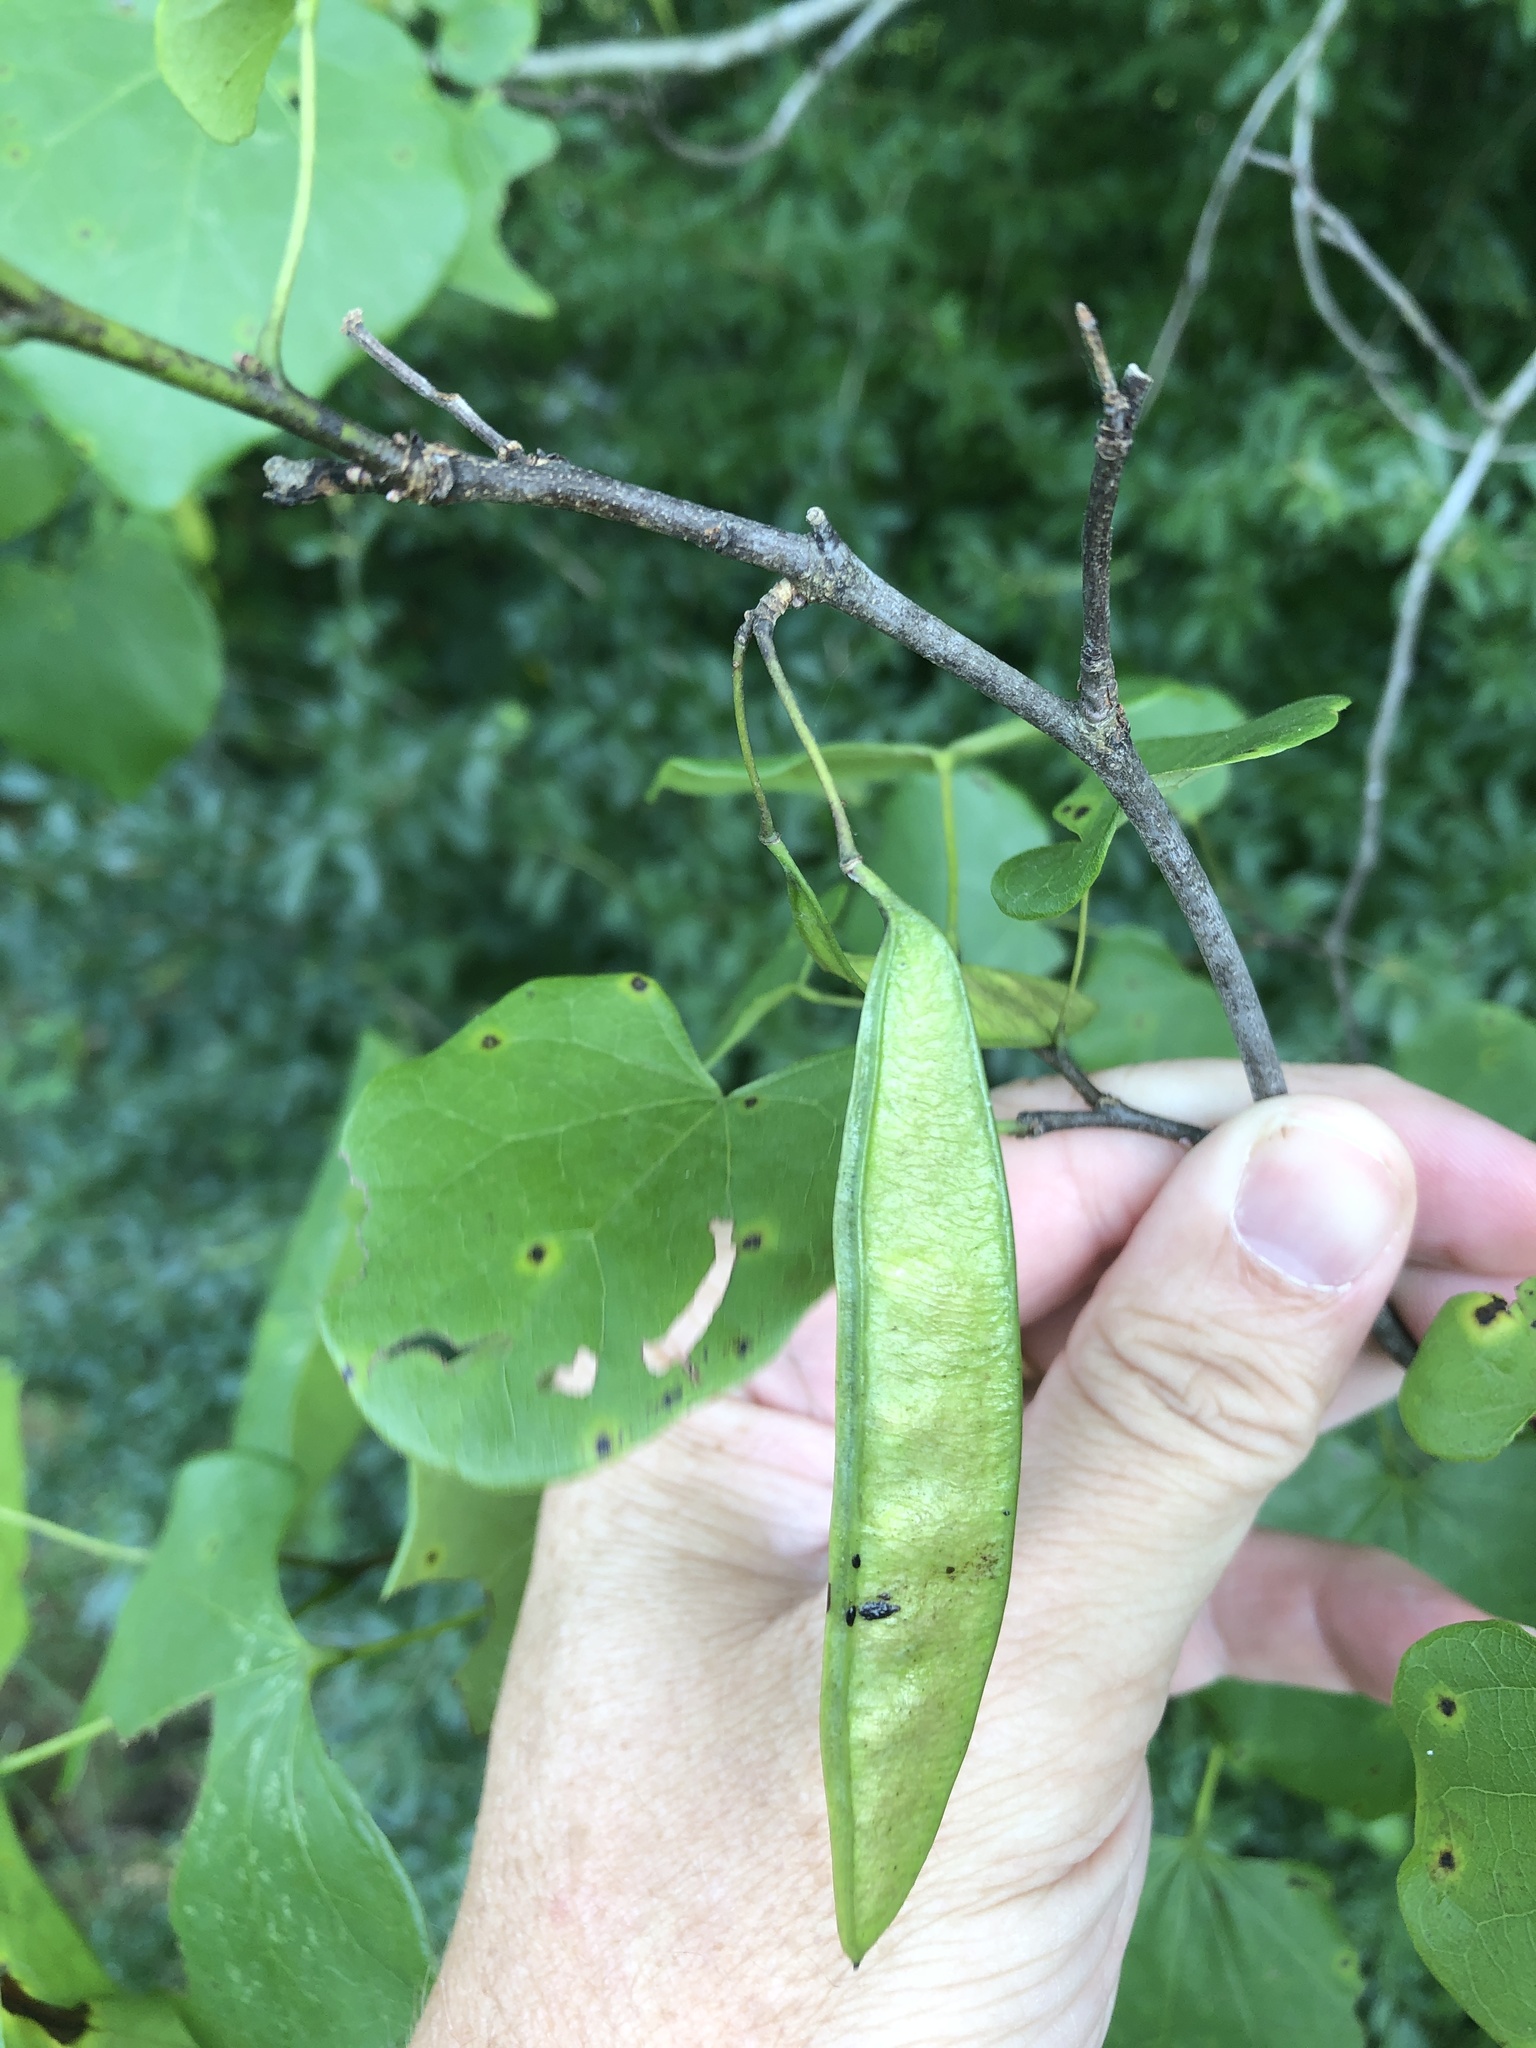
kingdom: Plantae
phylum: Tracheophyta
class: Magnoliopsida
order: Fabales
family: Fabaceae
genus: Cercis
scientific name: Cercis canadensis
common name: Eastern redbud
